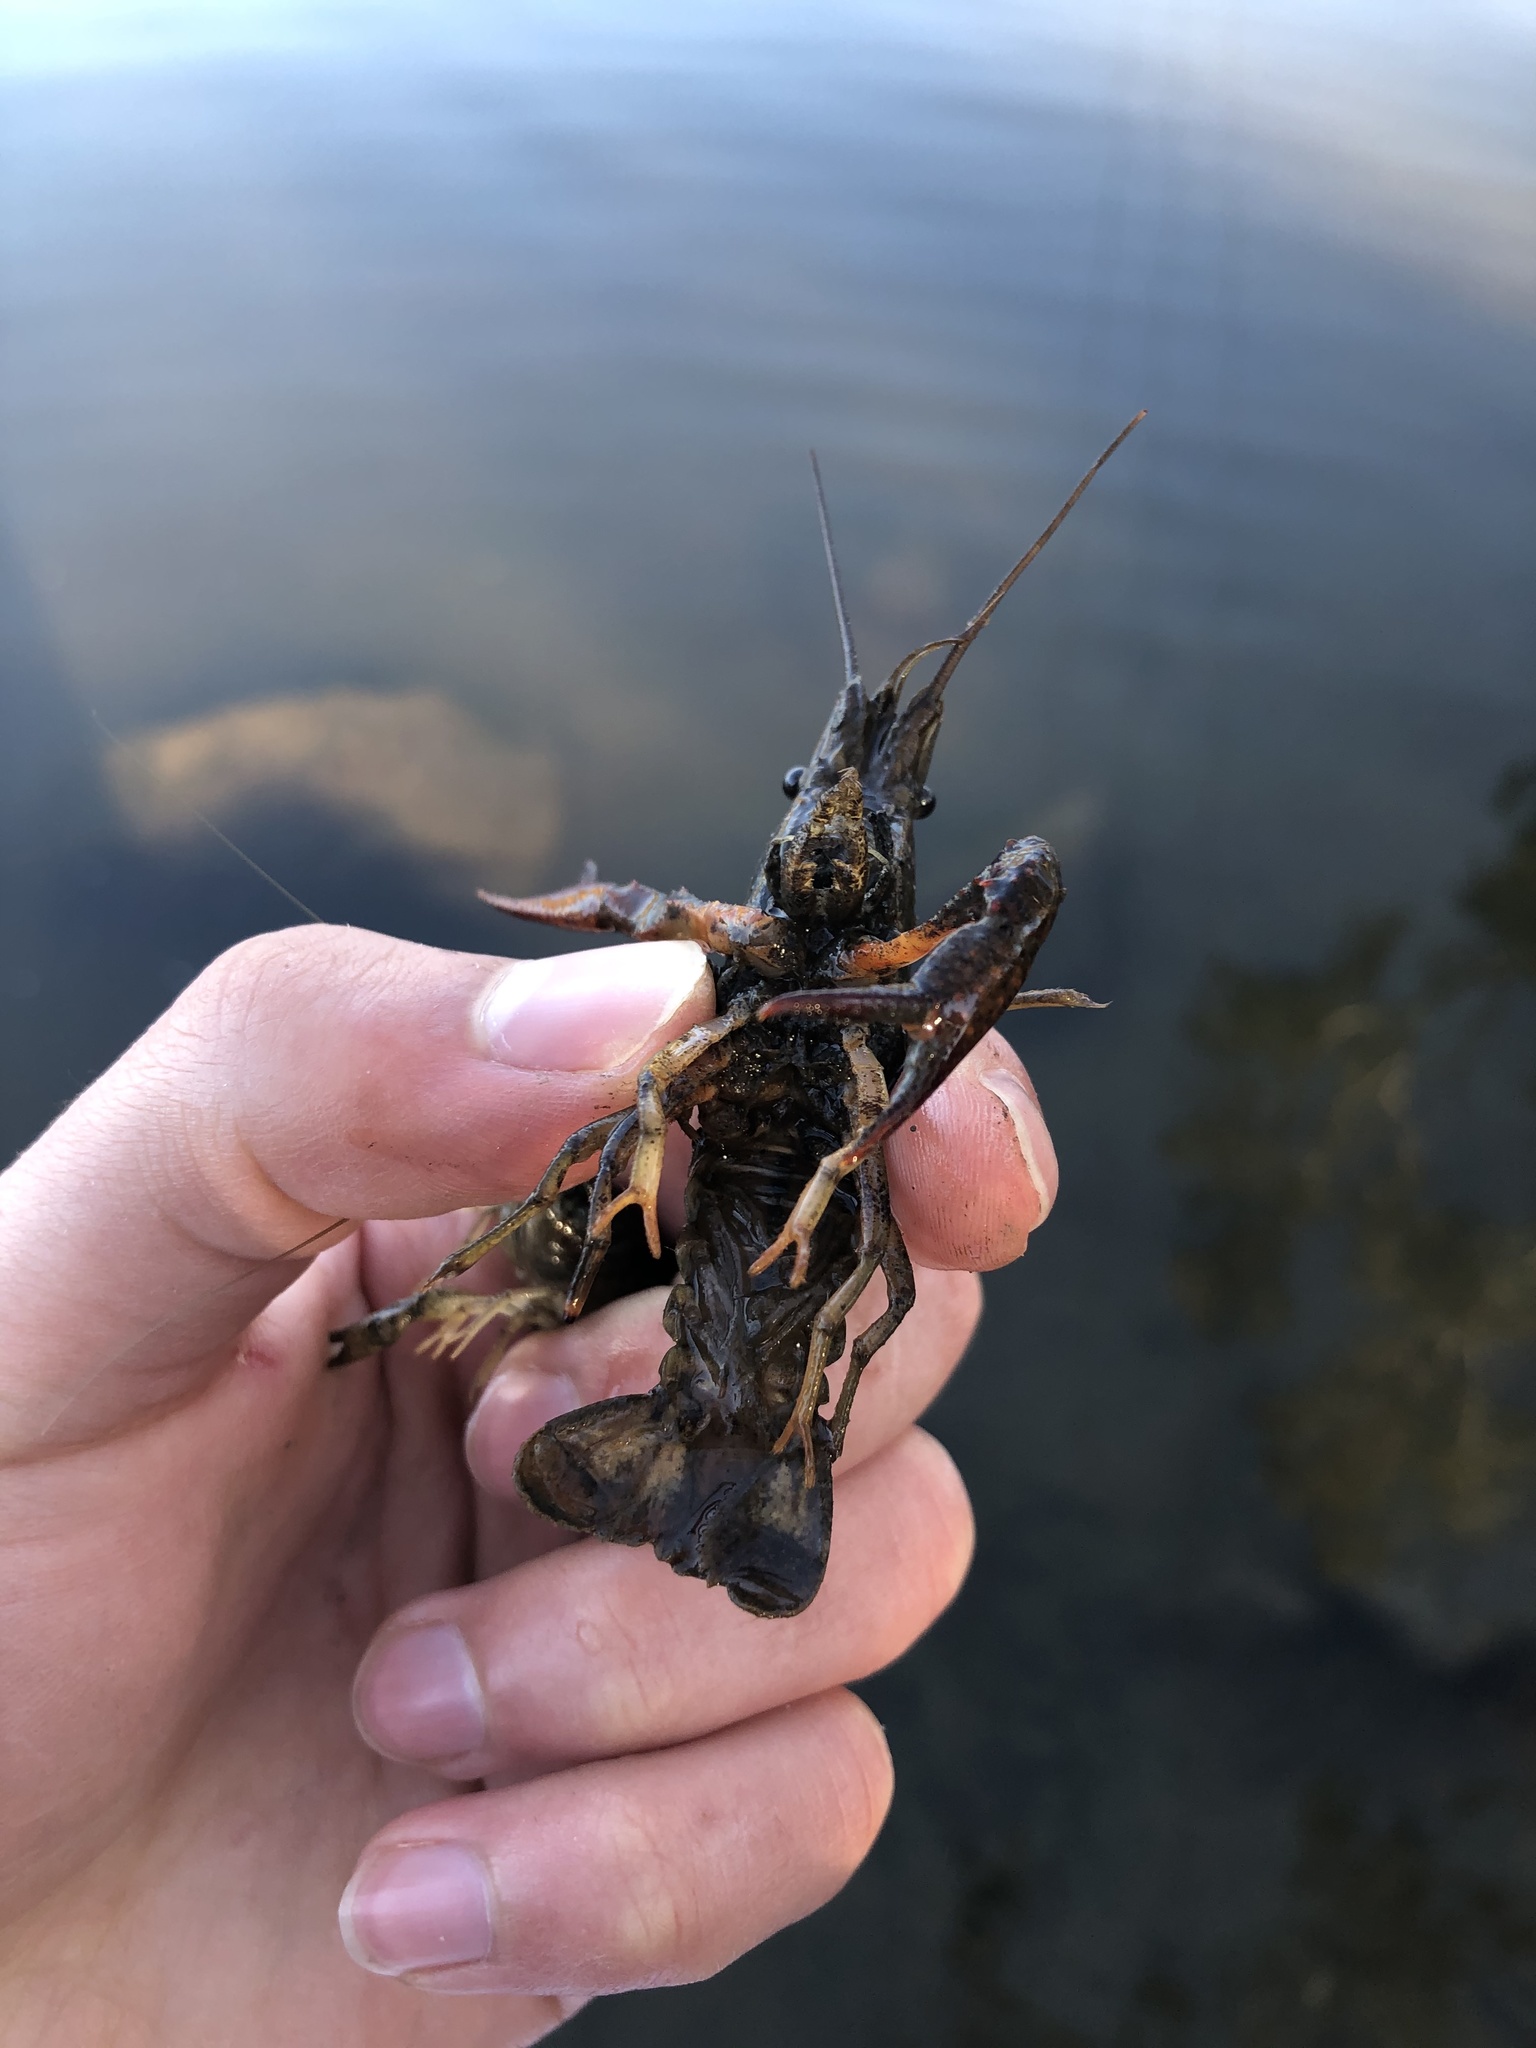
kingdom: Animalia
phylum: Arthropoda
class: Malacostraca
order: Decapoda
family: Cambaridae
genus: Procambarus
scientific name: Procambarus clarkii
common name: Red swamp crayfish
